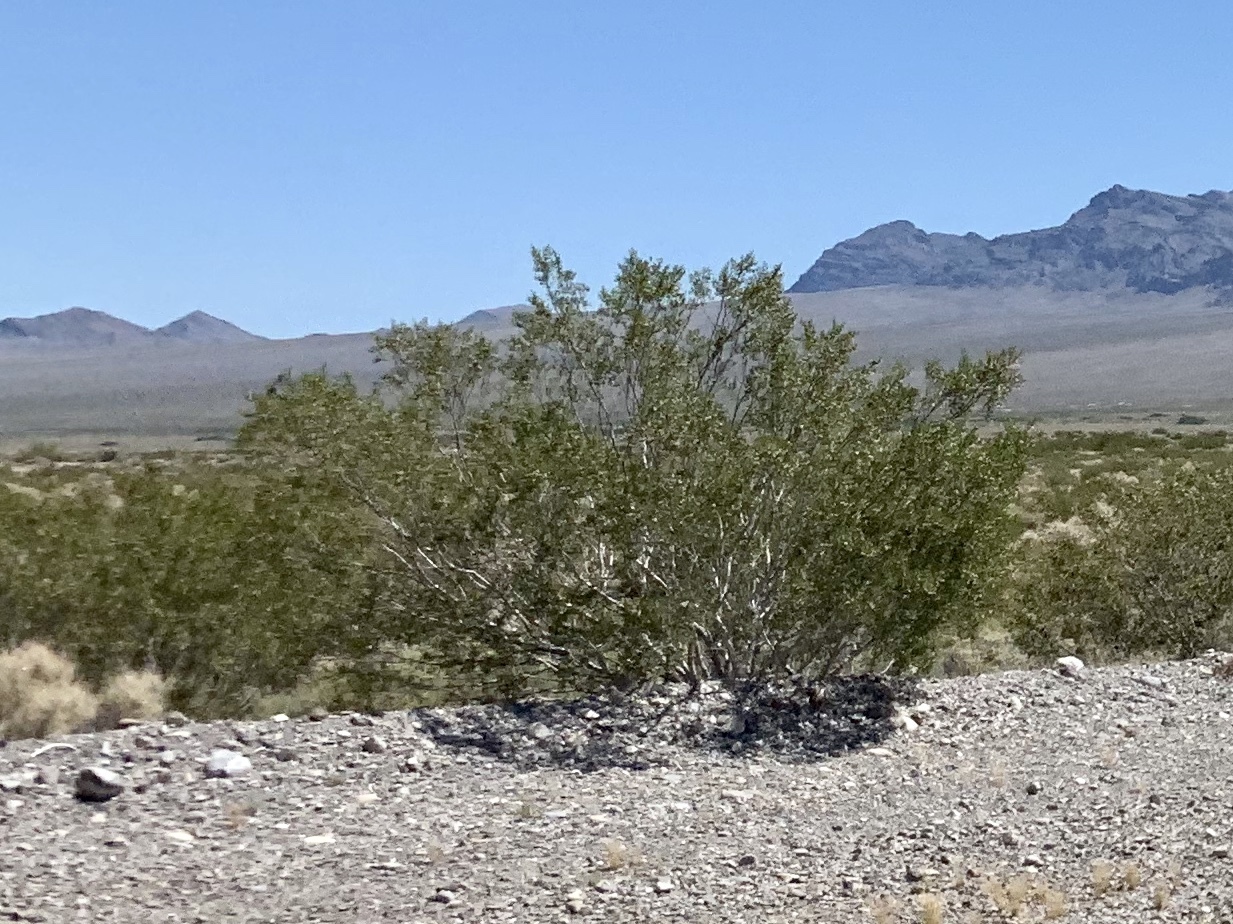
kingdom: Plantae
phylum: Tracheophyta
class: Magnoliopsida
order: Zygophyllales
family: Zygophyllaceae
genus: Larrea
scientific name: Larrea tridentata
